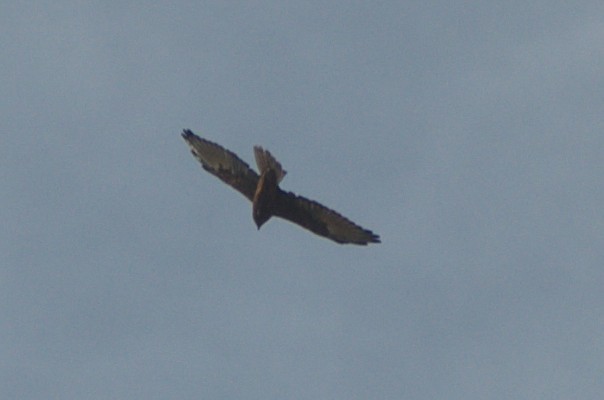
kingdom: Animalia
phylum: Chordata
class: Aves
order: Accipitriformes
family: Accipitridae
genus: Circus
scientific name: Circus approximans
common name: Swamp harrier
